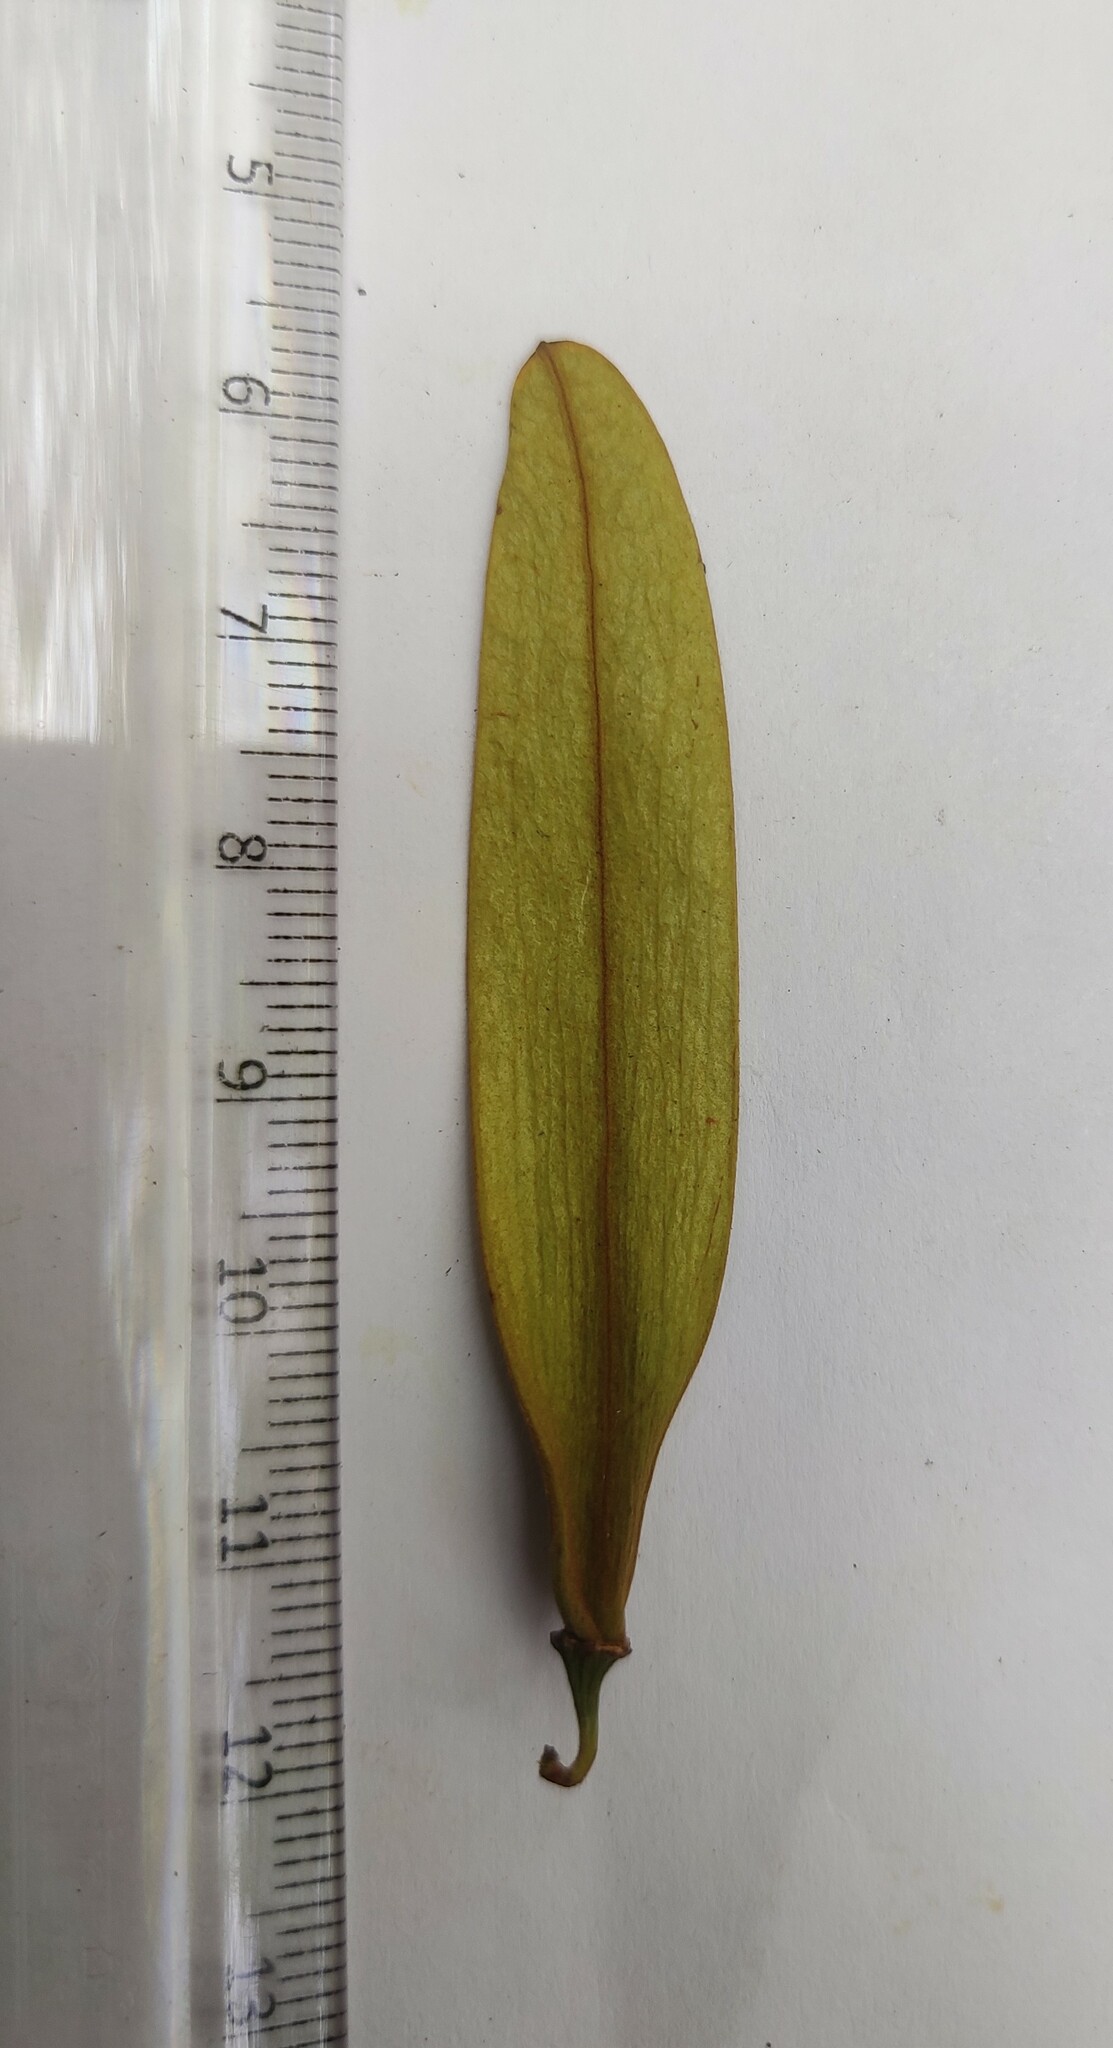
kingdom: Plantae
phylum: Tracheophyta
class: Magnoliopsida
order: Rosales
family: Rhamnaceae
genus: Ventilago
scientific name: Ventilago madraspatana
